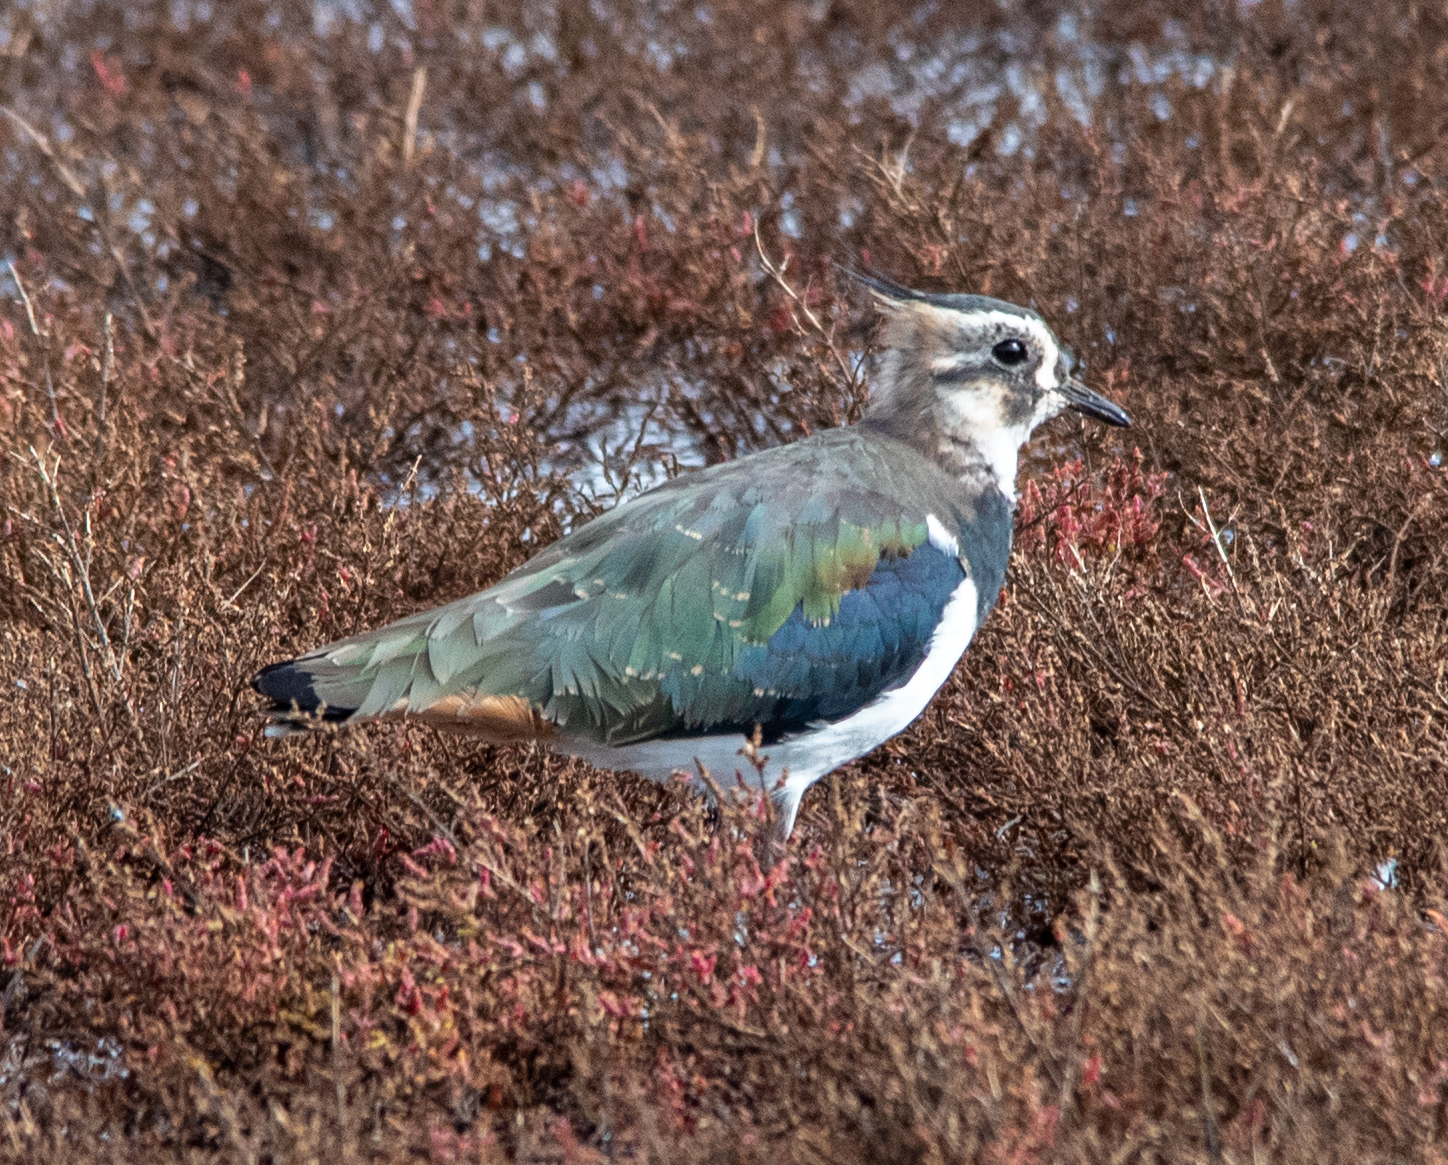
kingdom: Animalia
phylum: Chordata
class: Aves
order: Charadriiformes
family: Charadriidae
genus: Vanellus
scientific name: Vanellus vanellus
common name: Northern lapwing
